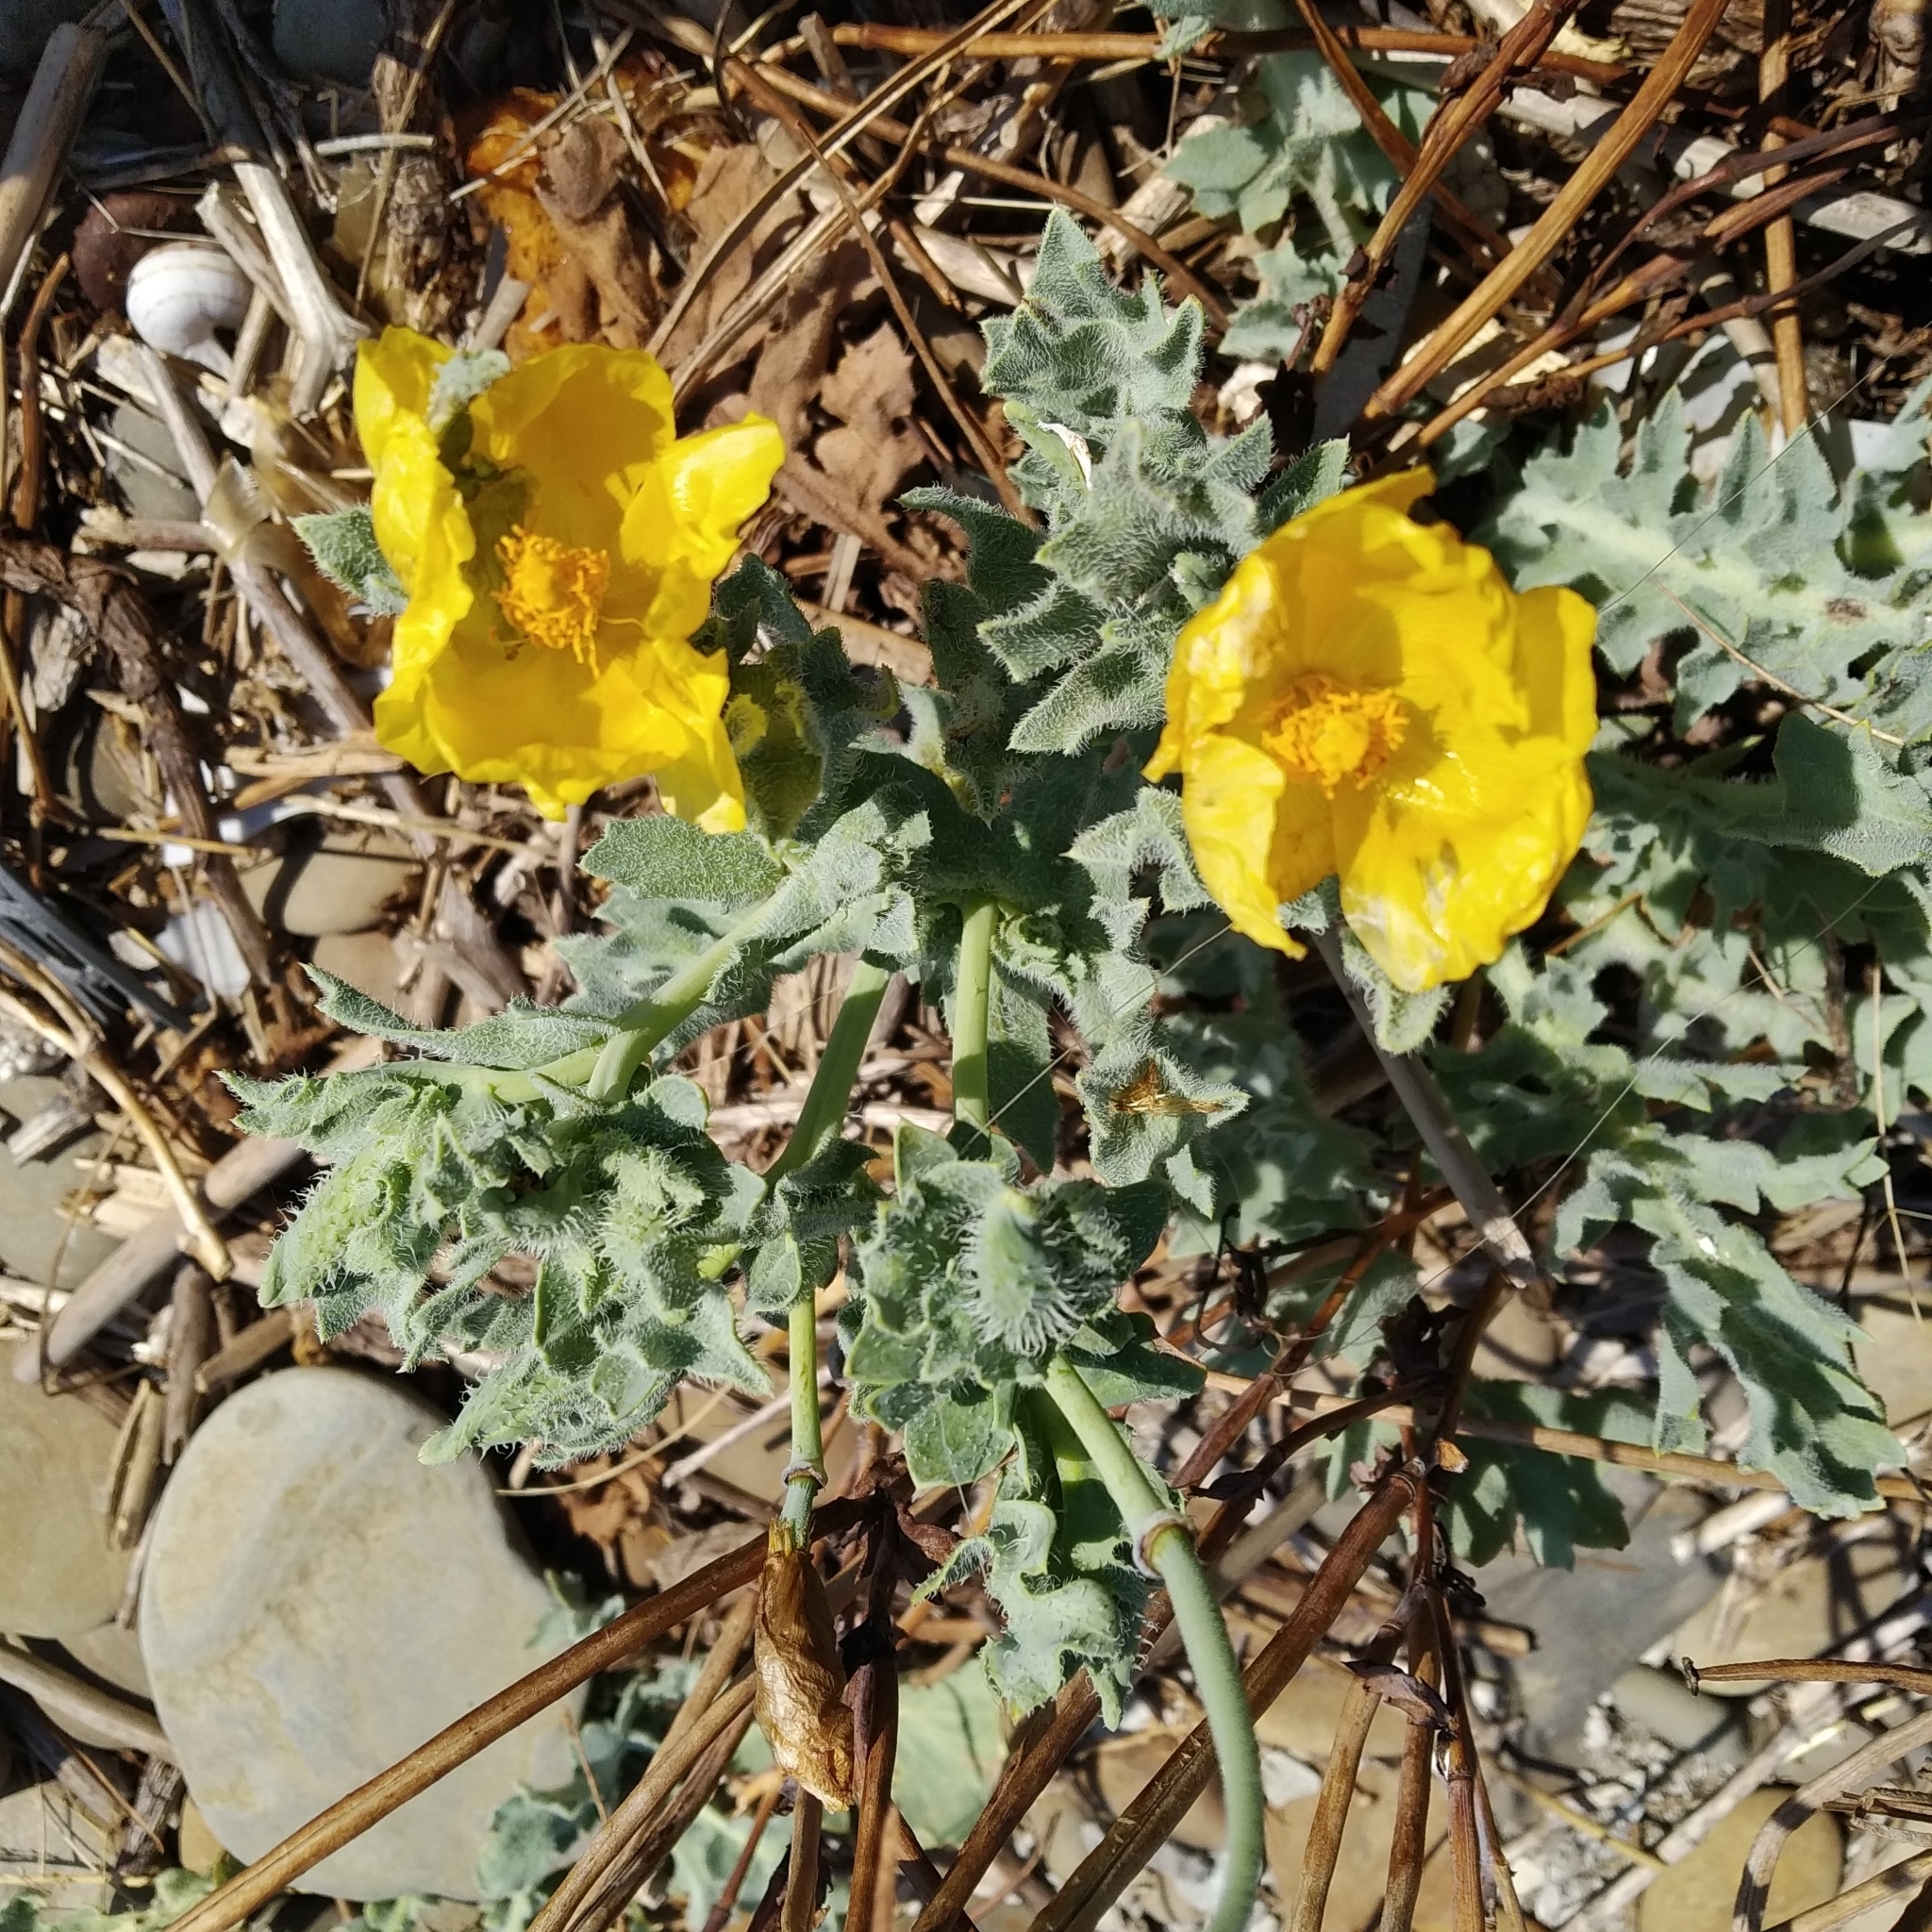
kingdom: Plantae
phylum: Tracheophyta
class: Magnoliopsida
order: Ranunculales
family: Papaveraceae
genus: Glaucium
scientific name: Glaucium flavum
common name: Yellow horned-poppy
